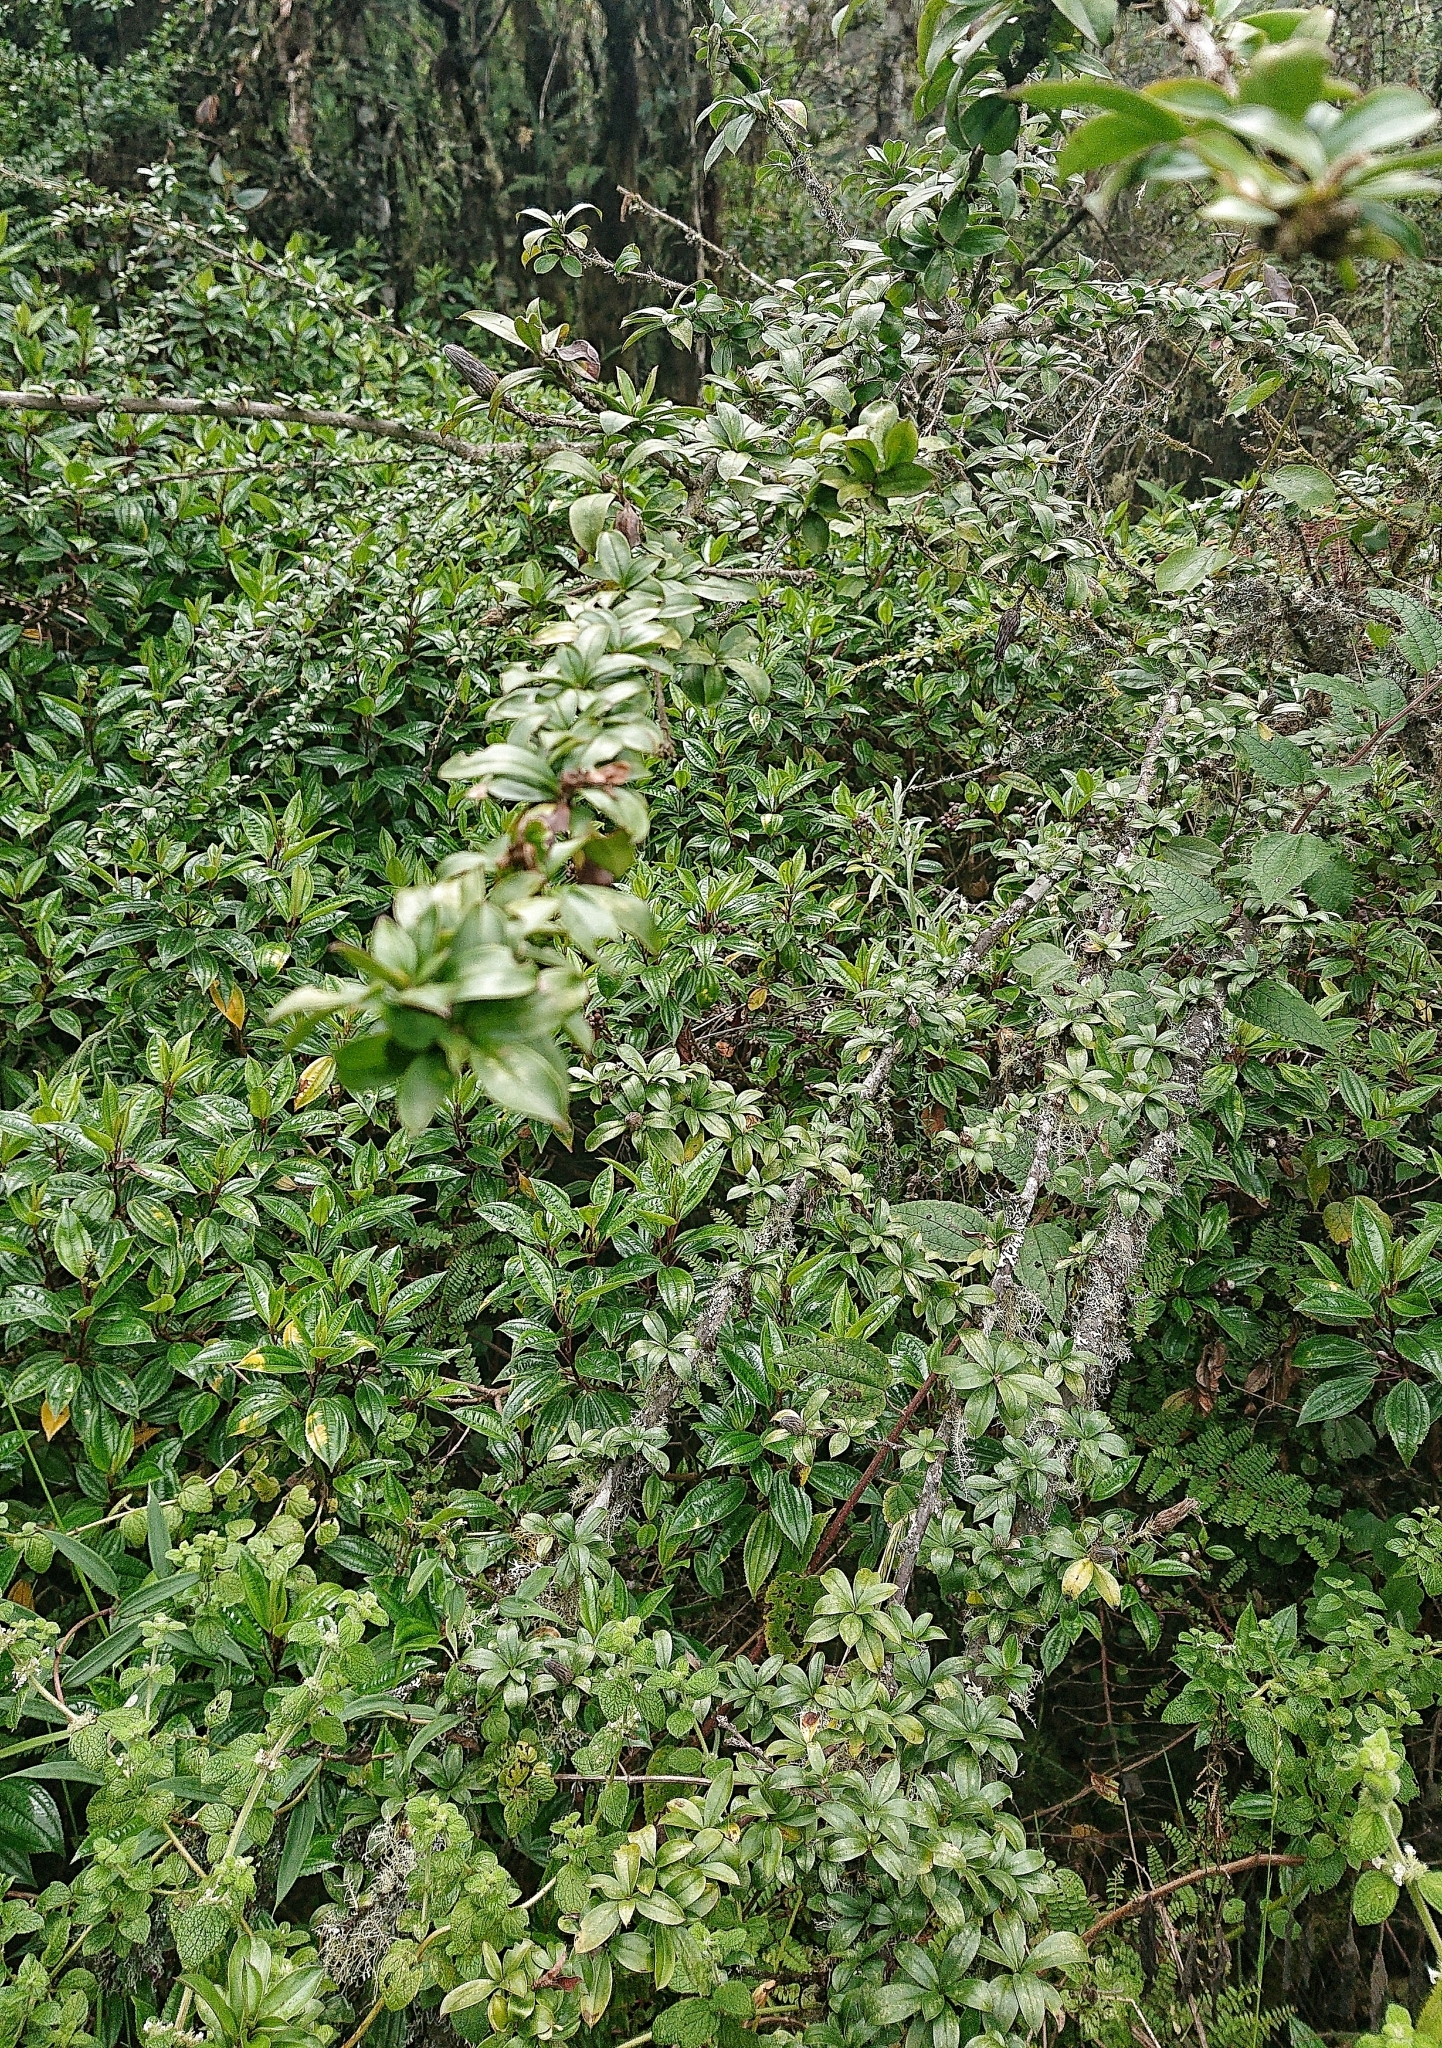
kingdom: Plantae
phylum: Tracheophyta
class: Magnoliopsida
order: Asterales
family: Asteraceae
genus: Barnadesia
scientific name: Barnadesia arborea
